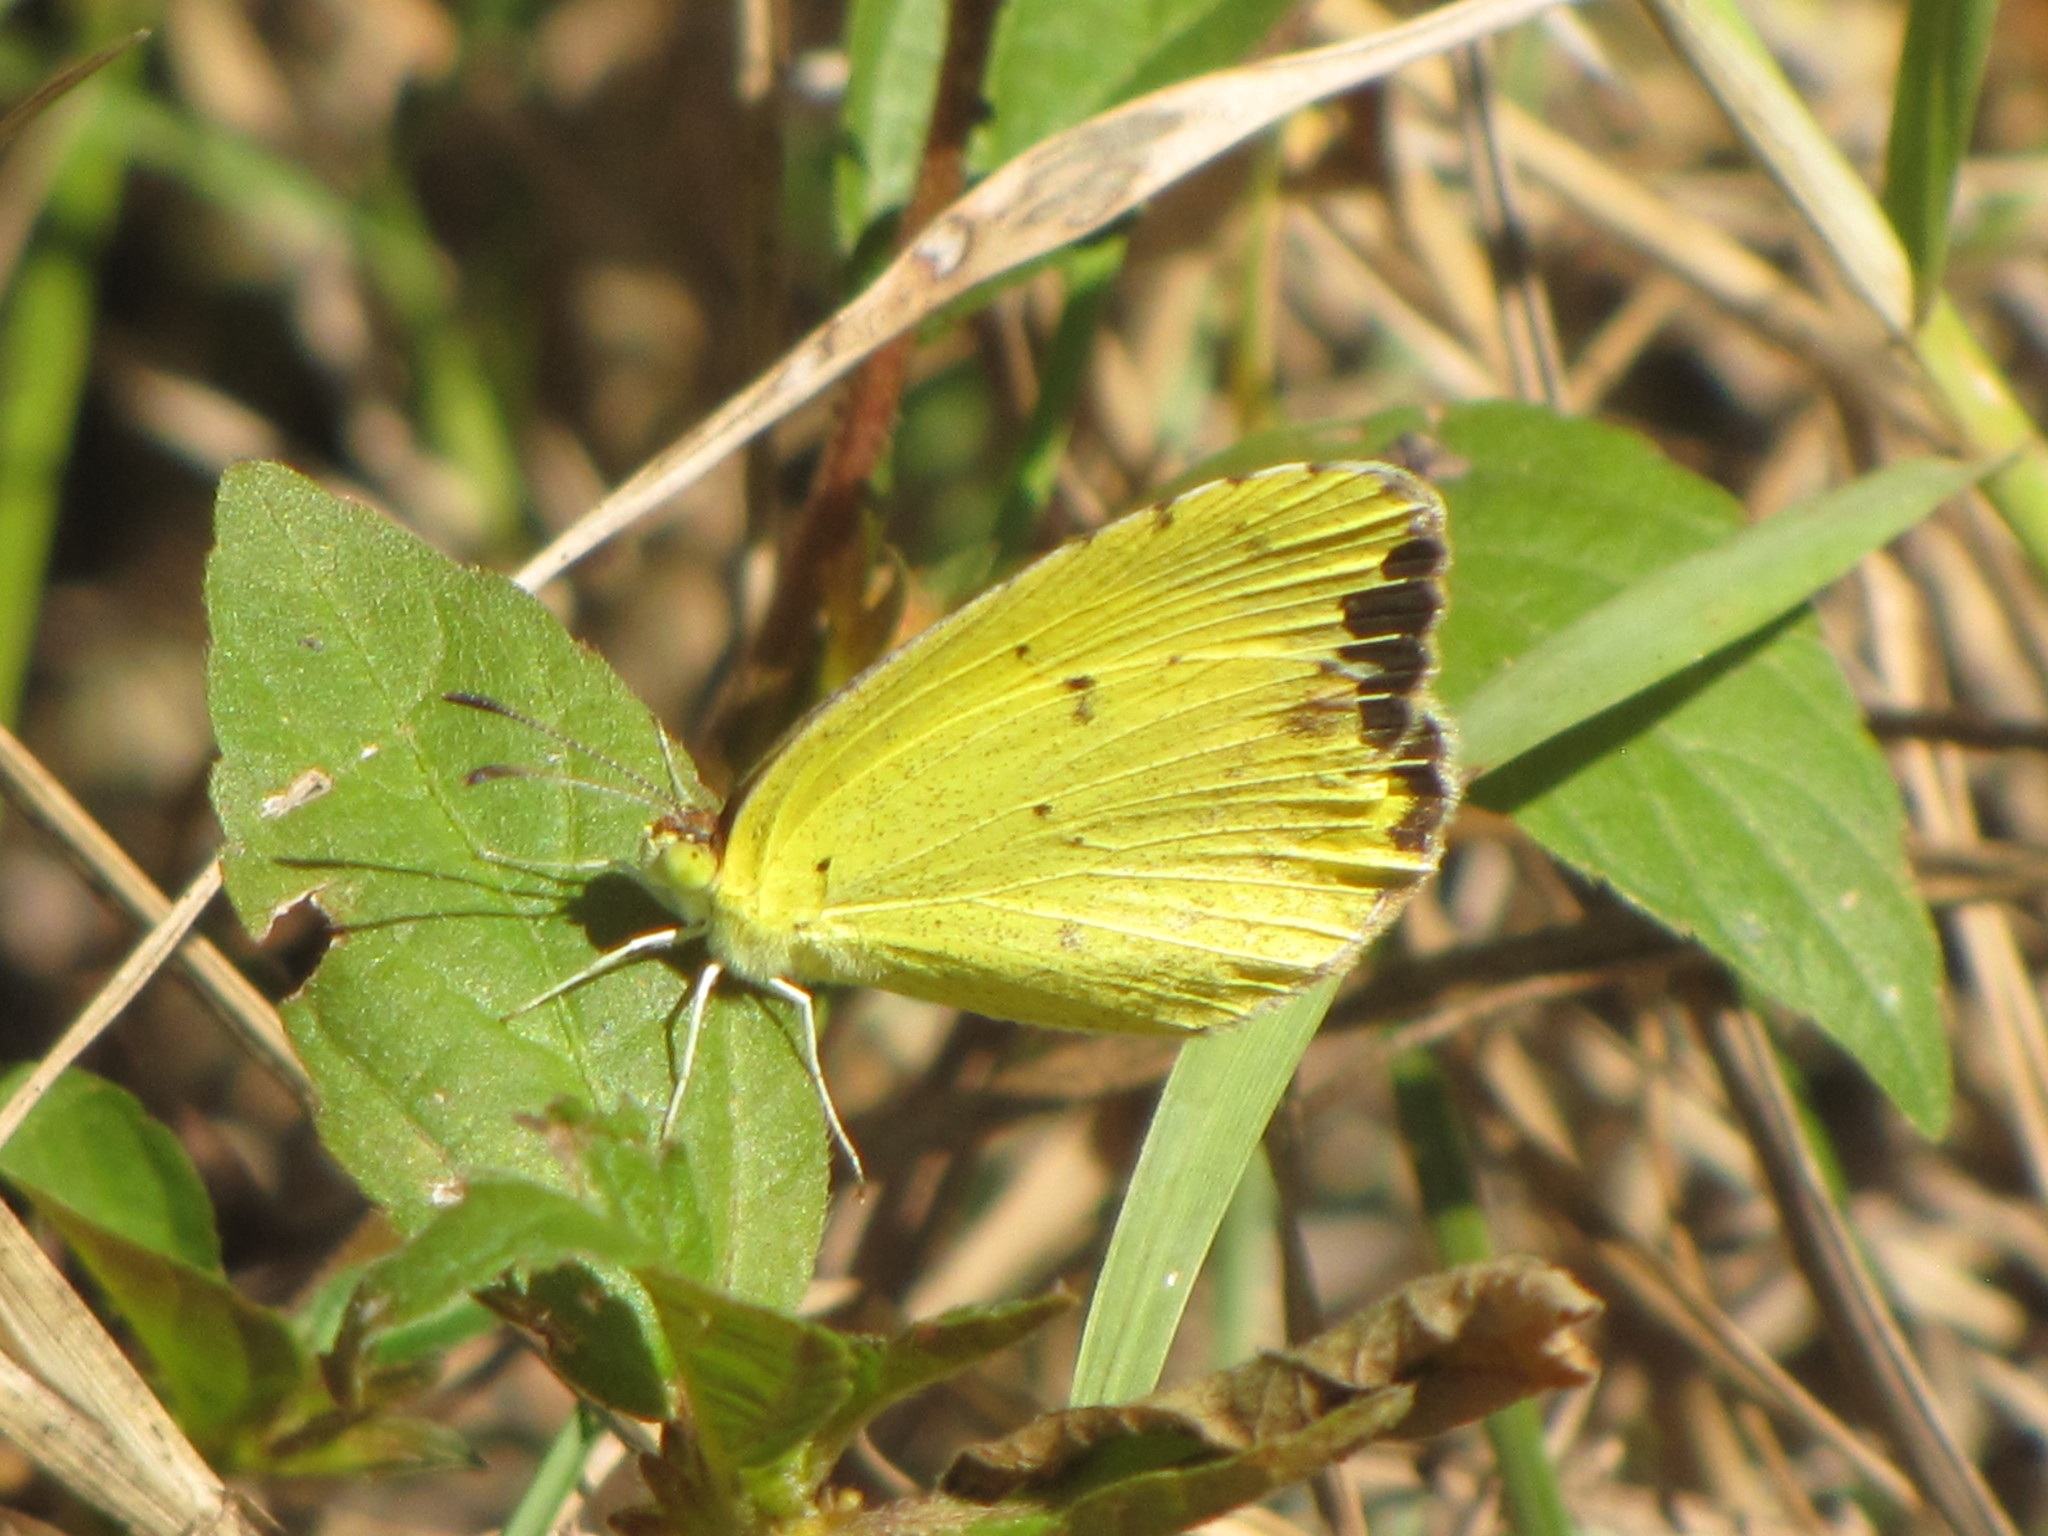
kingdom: Animalia
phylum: Arthropoda
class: Insecta
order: Lepidoptera
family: Pieridae
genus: Pyrisitia
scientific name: Pyrisitia lisa
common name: Little yellow
